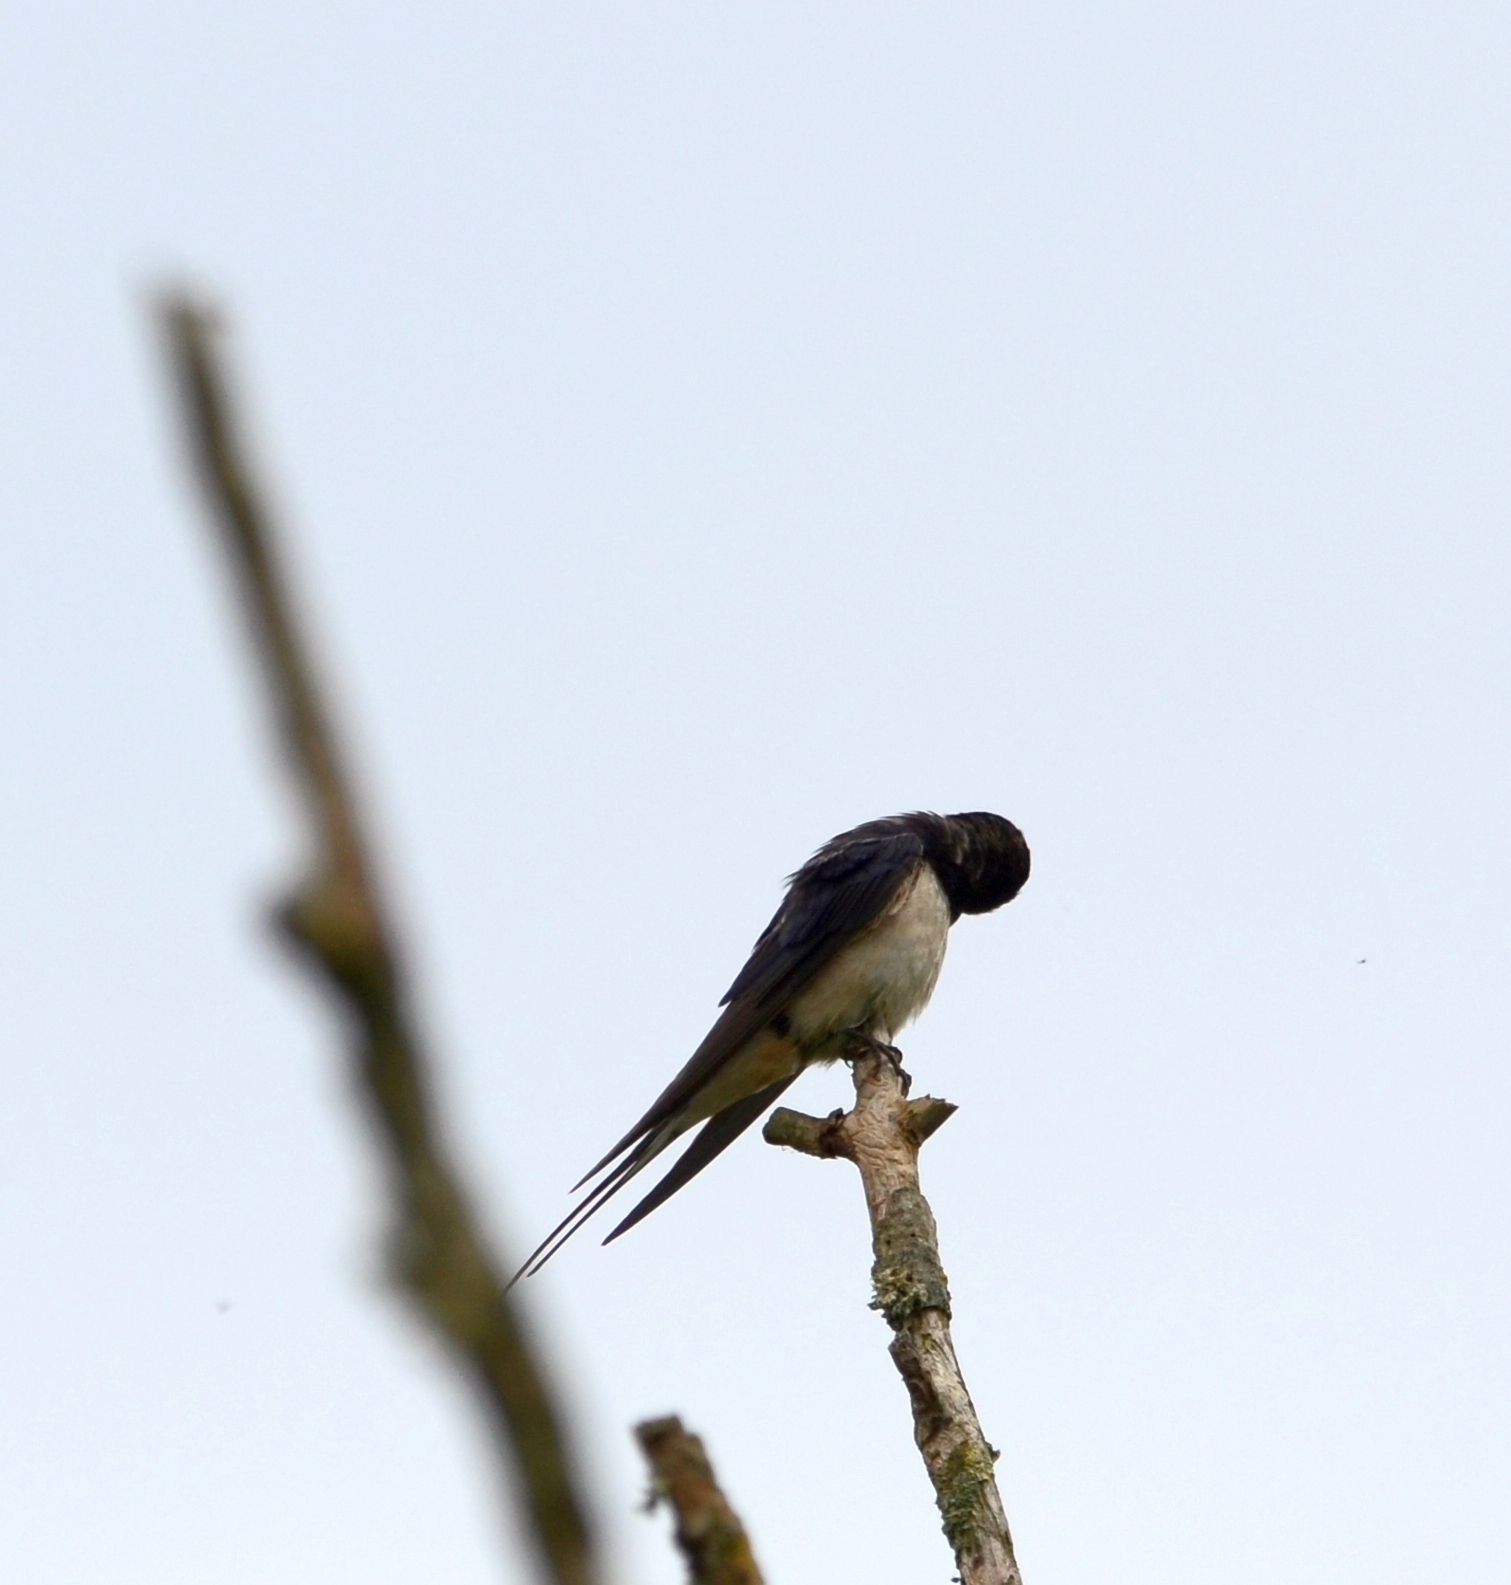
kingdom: Animalia
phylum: Chordata
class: Aves
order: Passeriformes
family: Hirundinidae
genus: Hirundo
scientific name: Hirundo rustica
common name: Barn swallow
